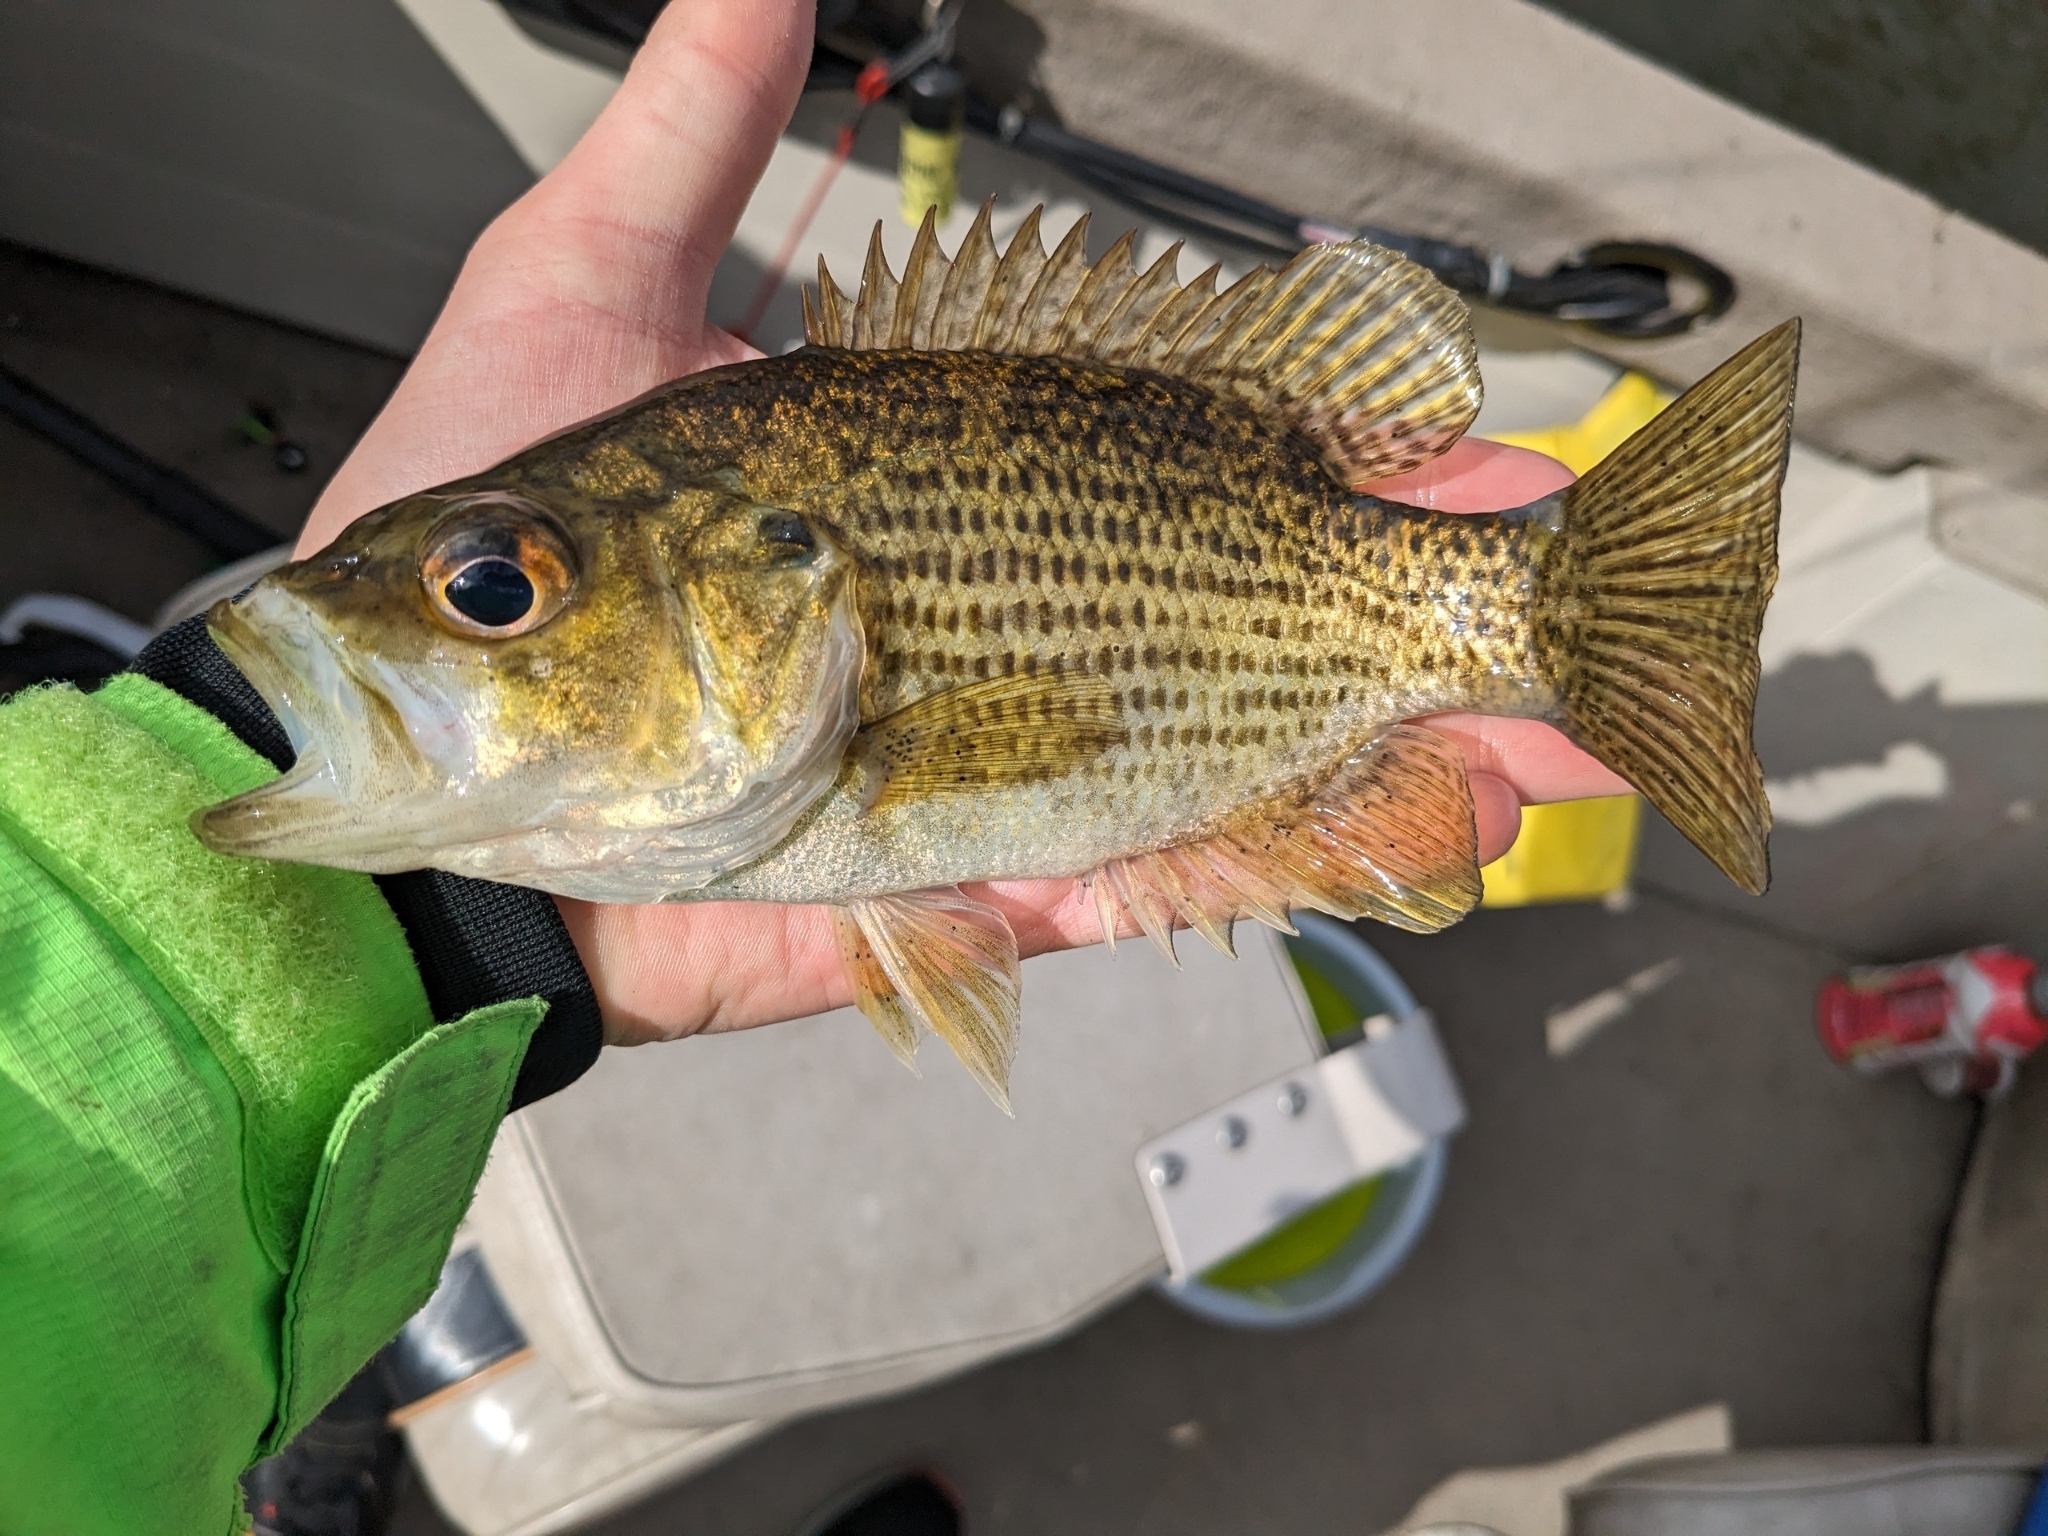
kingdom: Animalia
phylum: Chordata
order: Perciformes
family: Centrarchidae
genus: Ambloplites
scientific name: Ambloplites rupestris
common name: Rock bass
